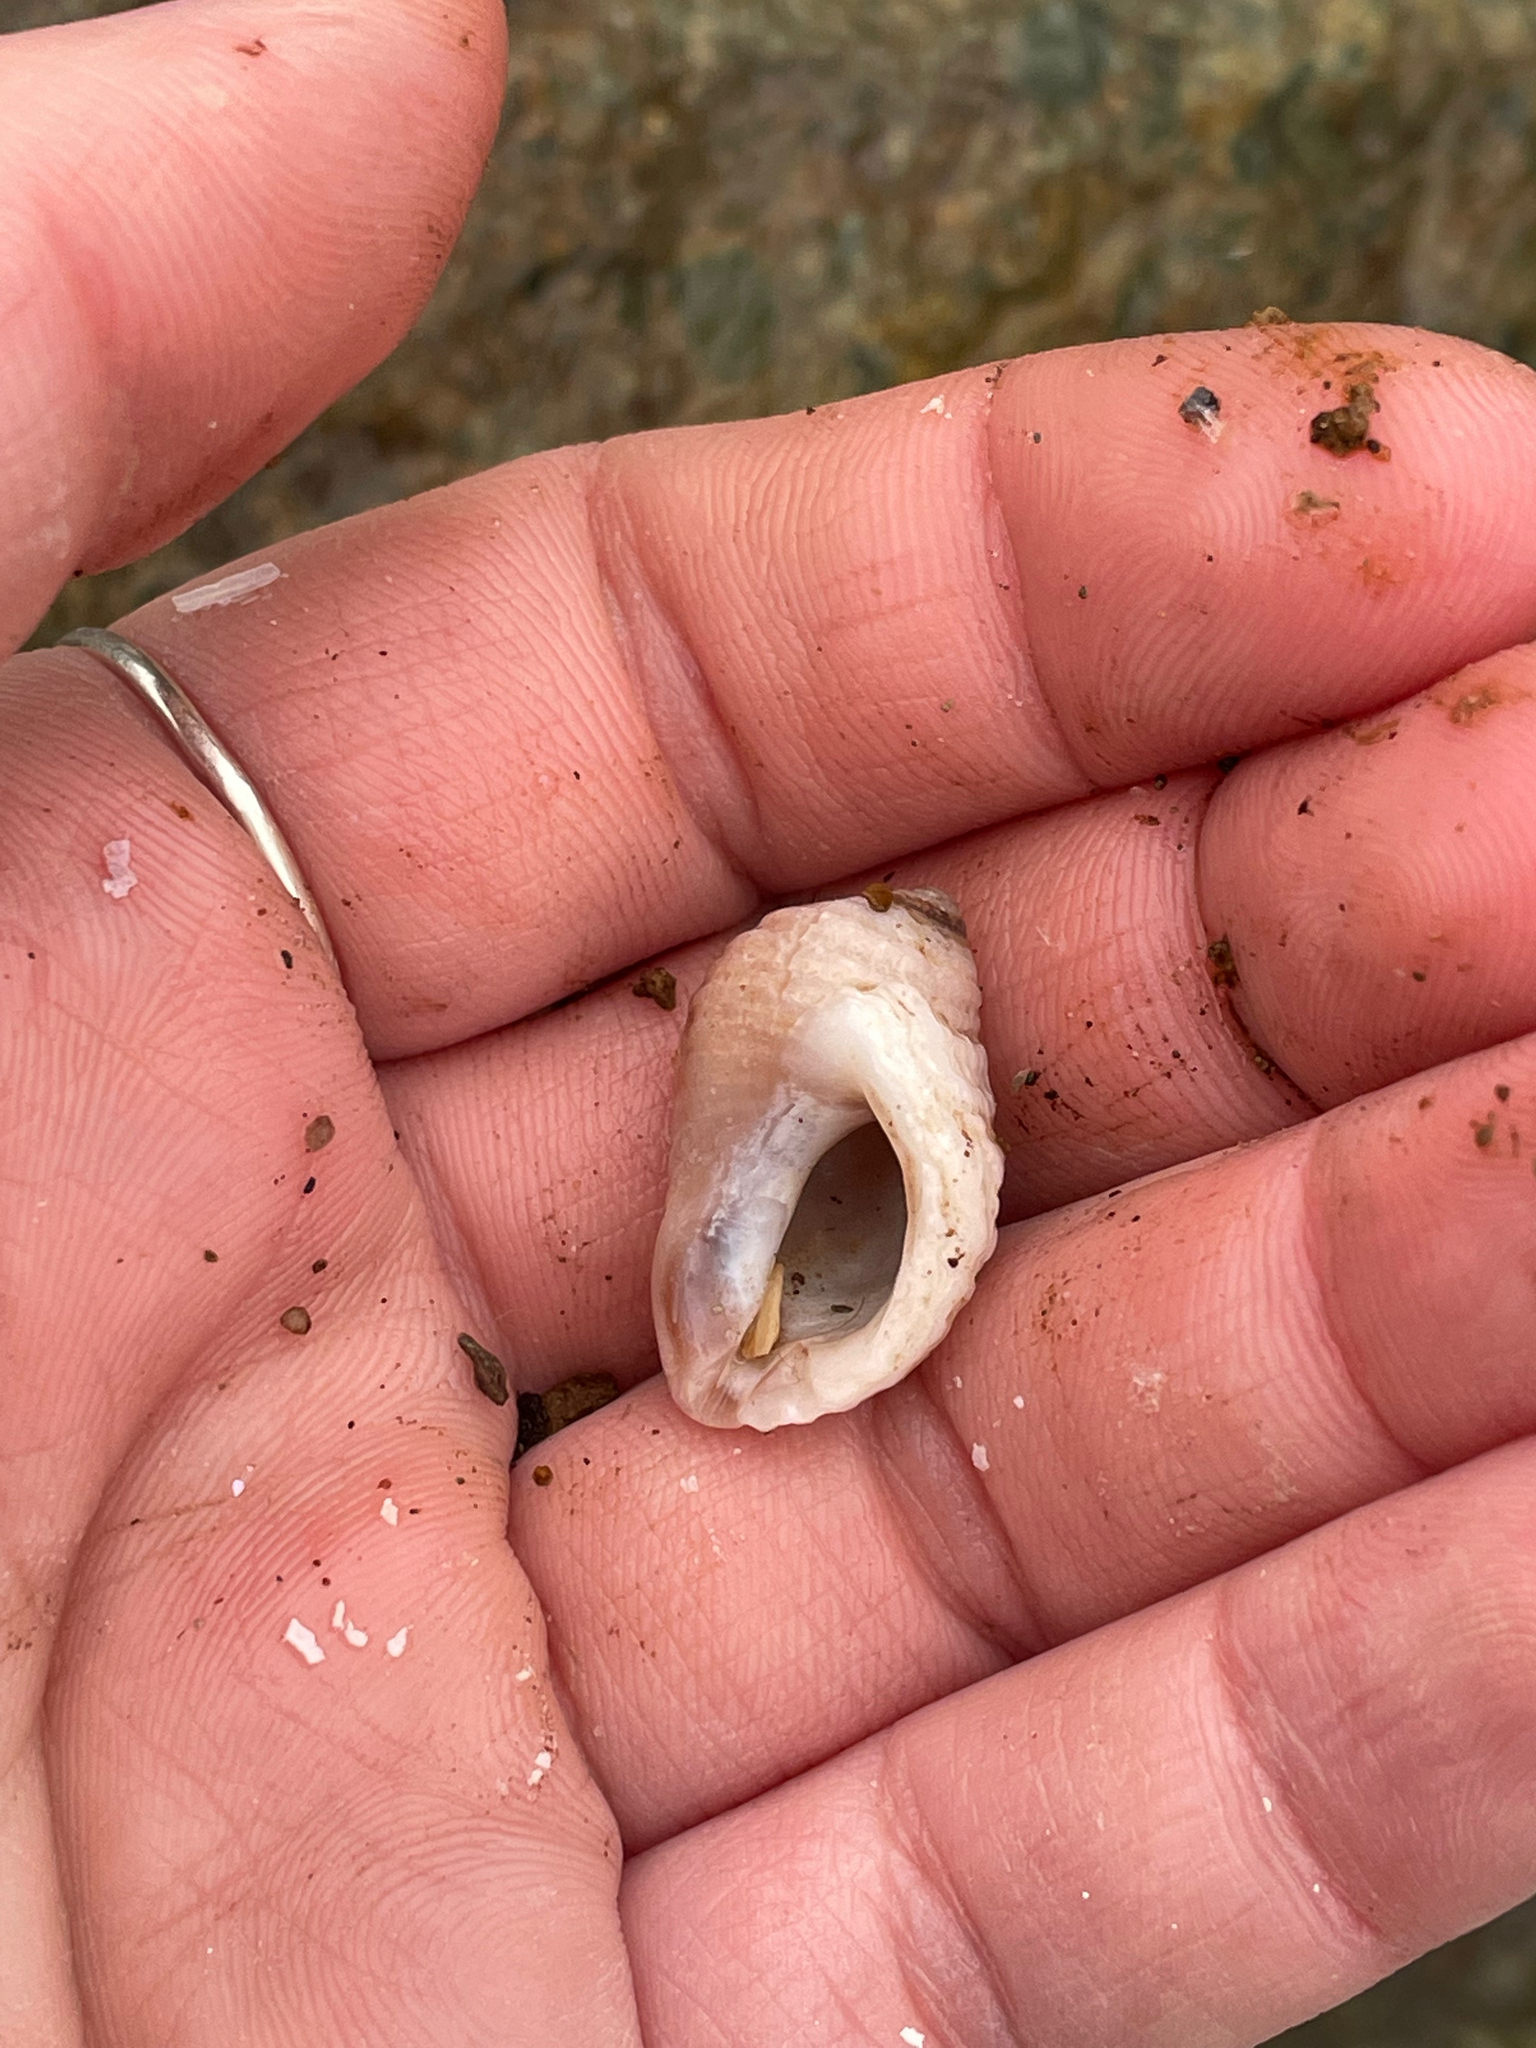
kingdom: Animalia
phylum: Mollusca
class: Gastropoda
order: Neogastropoda
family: Muricidae
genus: Nucella
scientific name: Nucella lapillus
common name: Dog whelk
